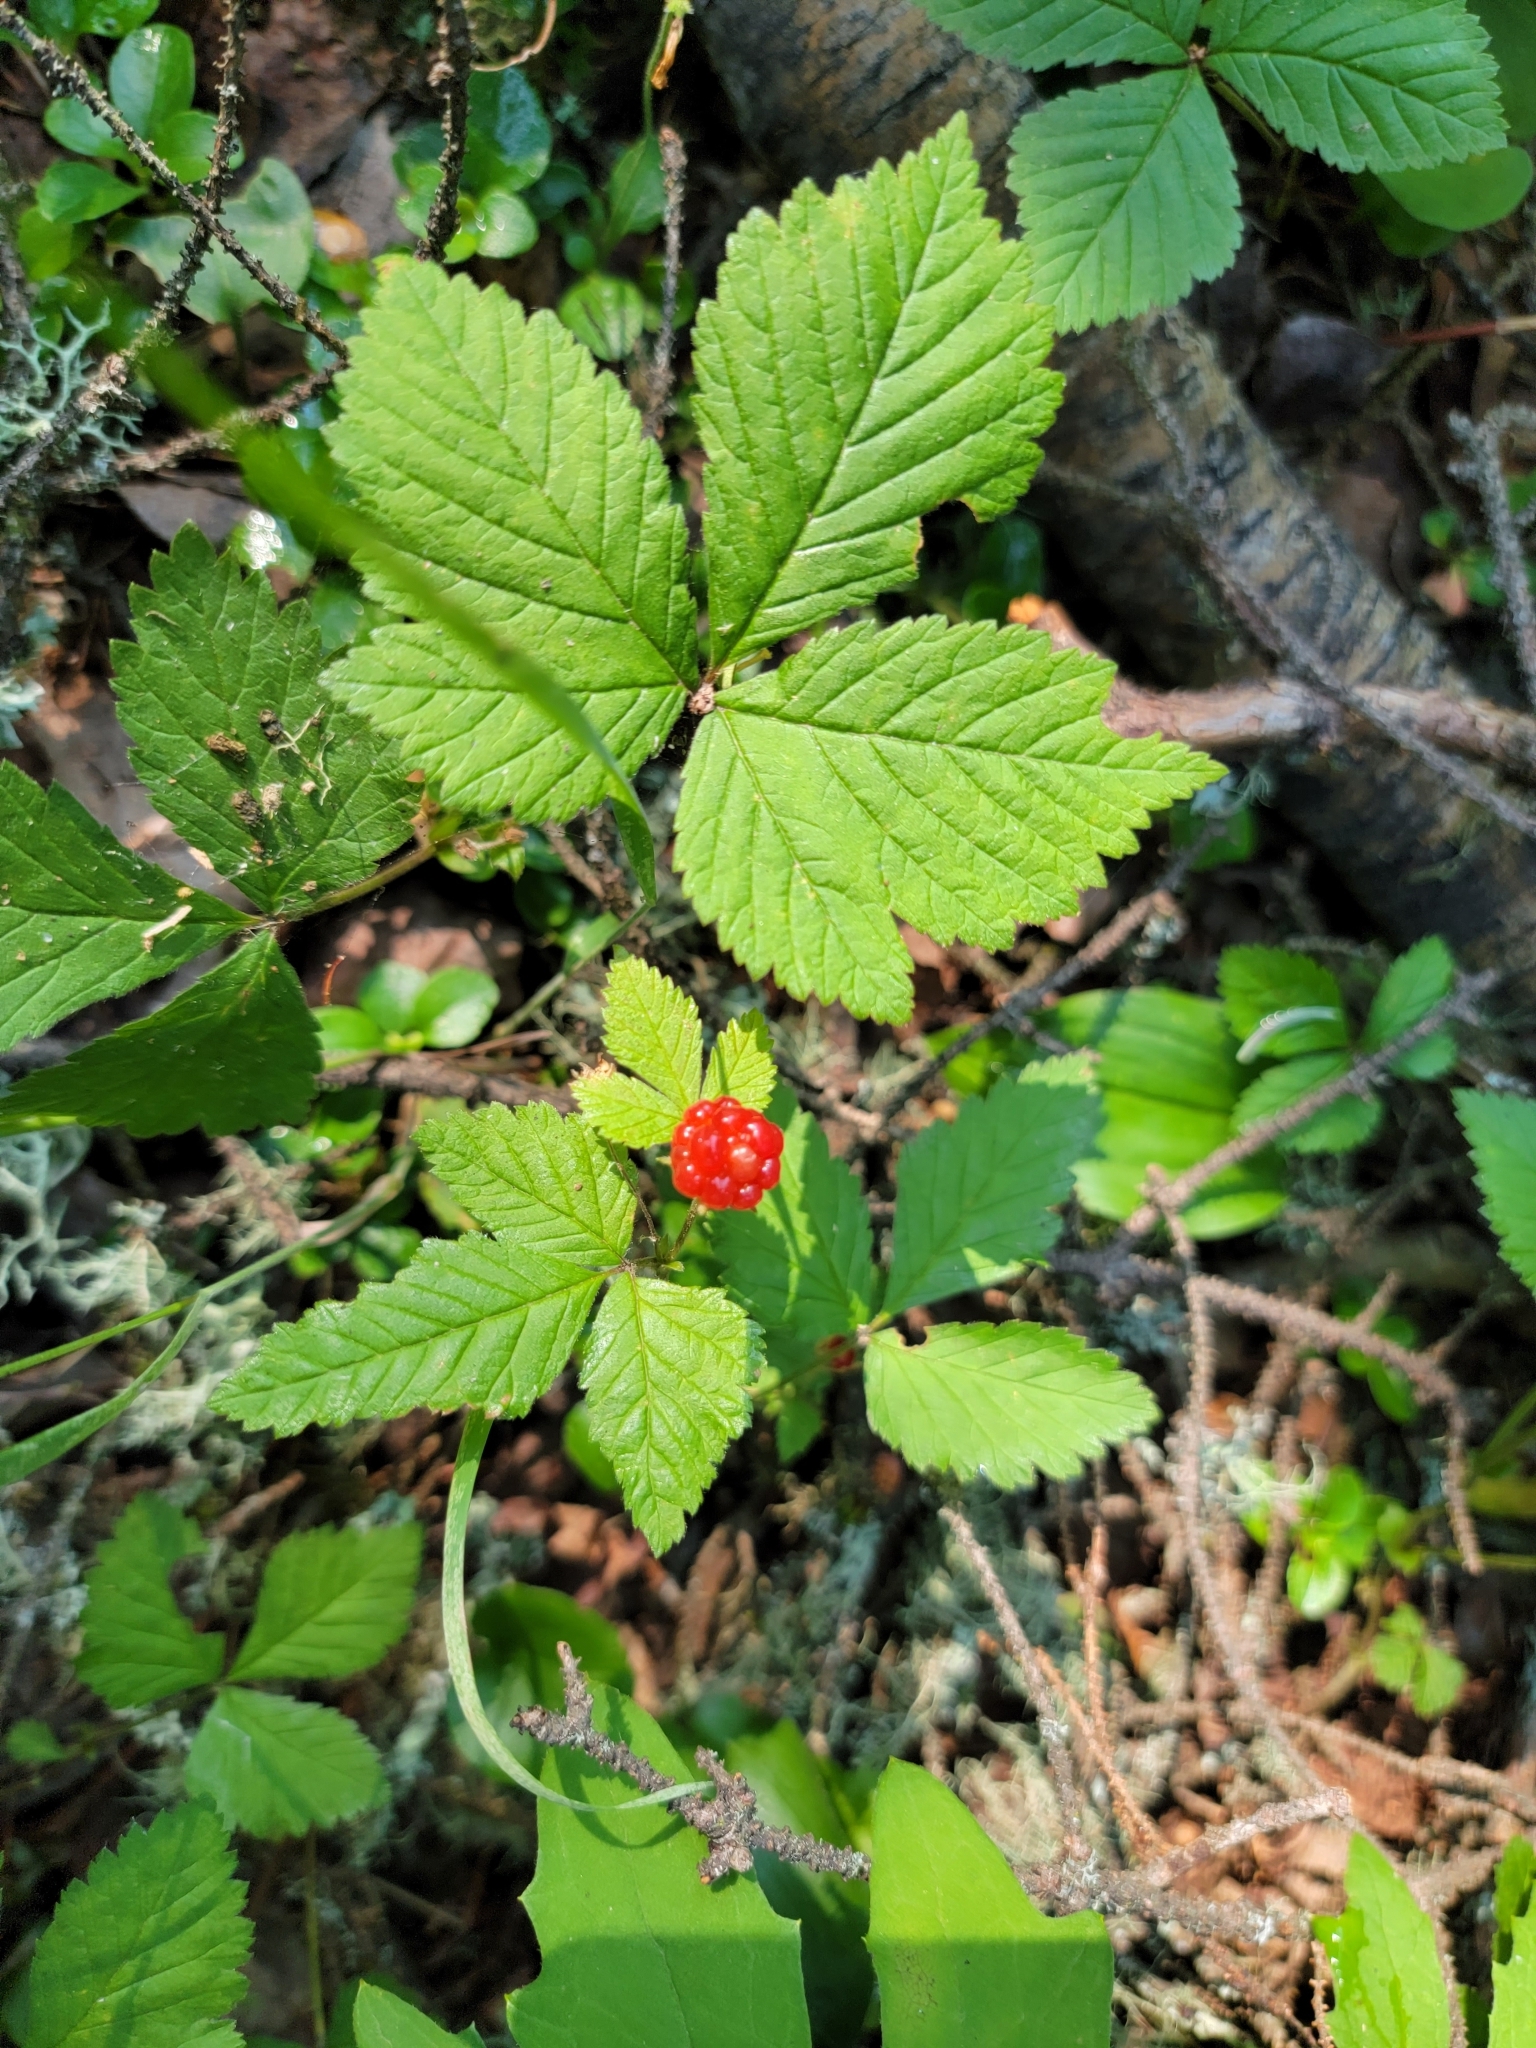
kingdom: Plantae
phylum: Tracheophyta
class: Magnoliopsida
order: Rosales
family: Rosaceae
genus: Rubus
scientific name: Rubus pubescens
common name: Dwarf raspberry
